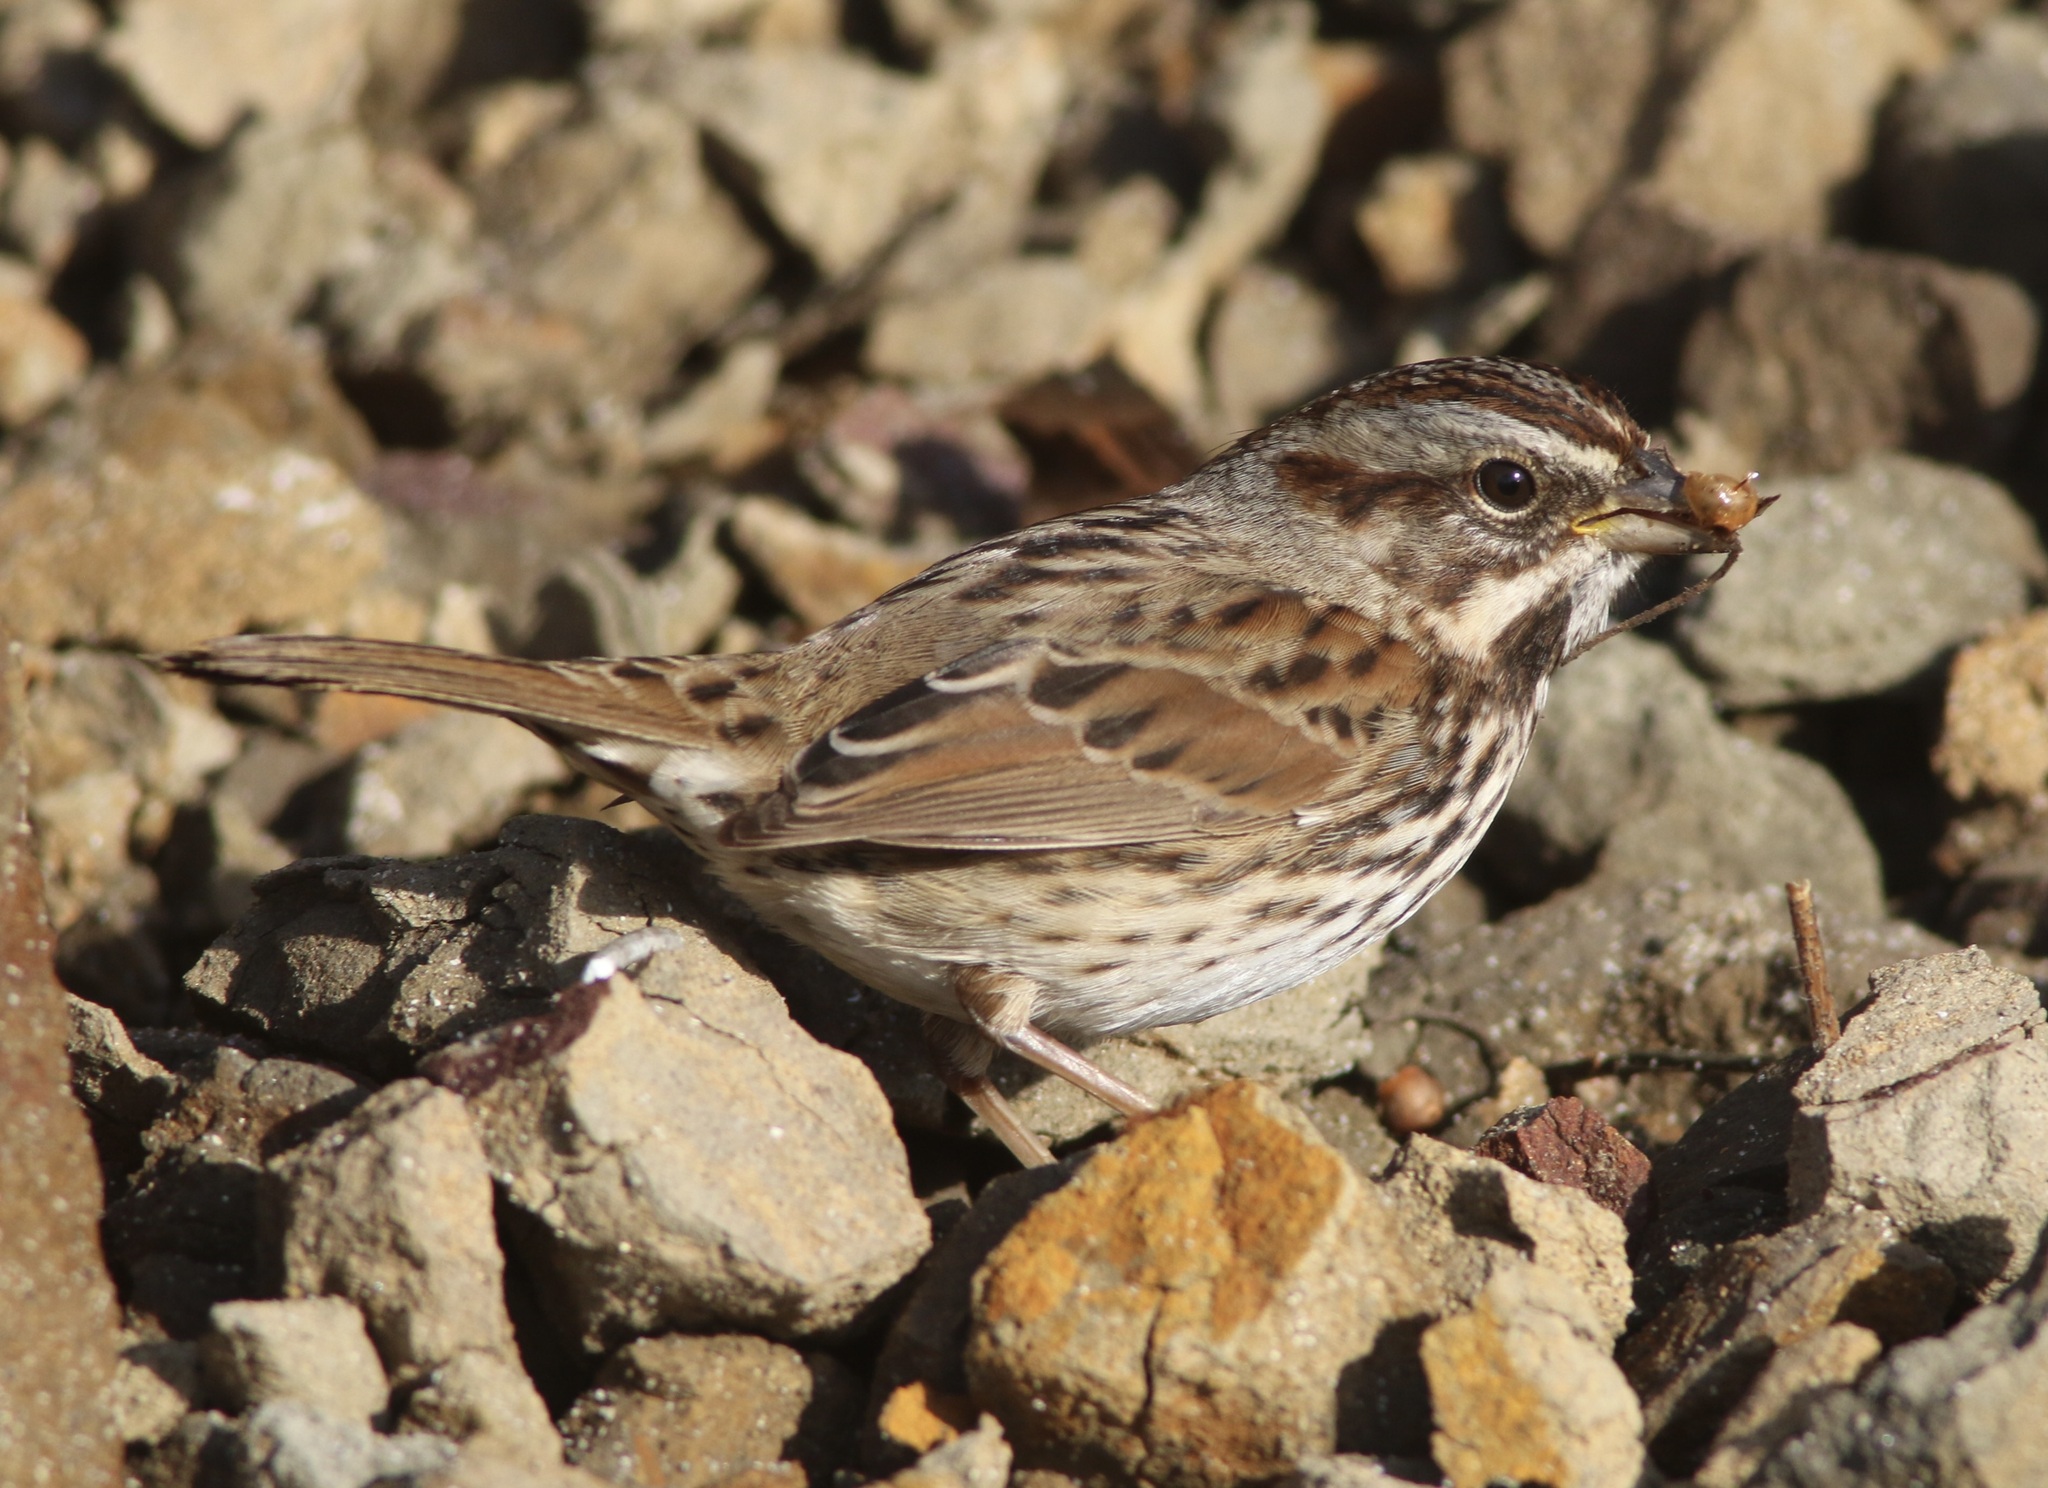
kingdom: Animalia
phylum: Chordata
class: Aves
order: Passeriformes
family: Passerellidae
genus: Melospiza
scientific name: Melospiza melodia
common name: Song sparrow
